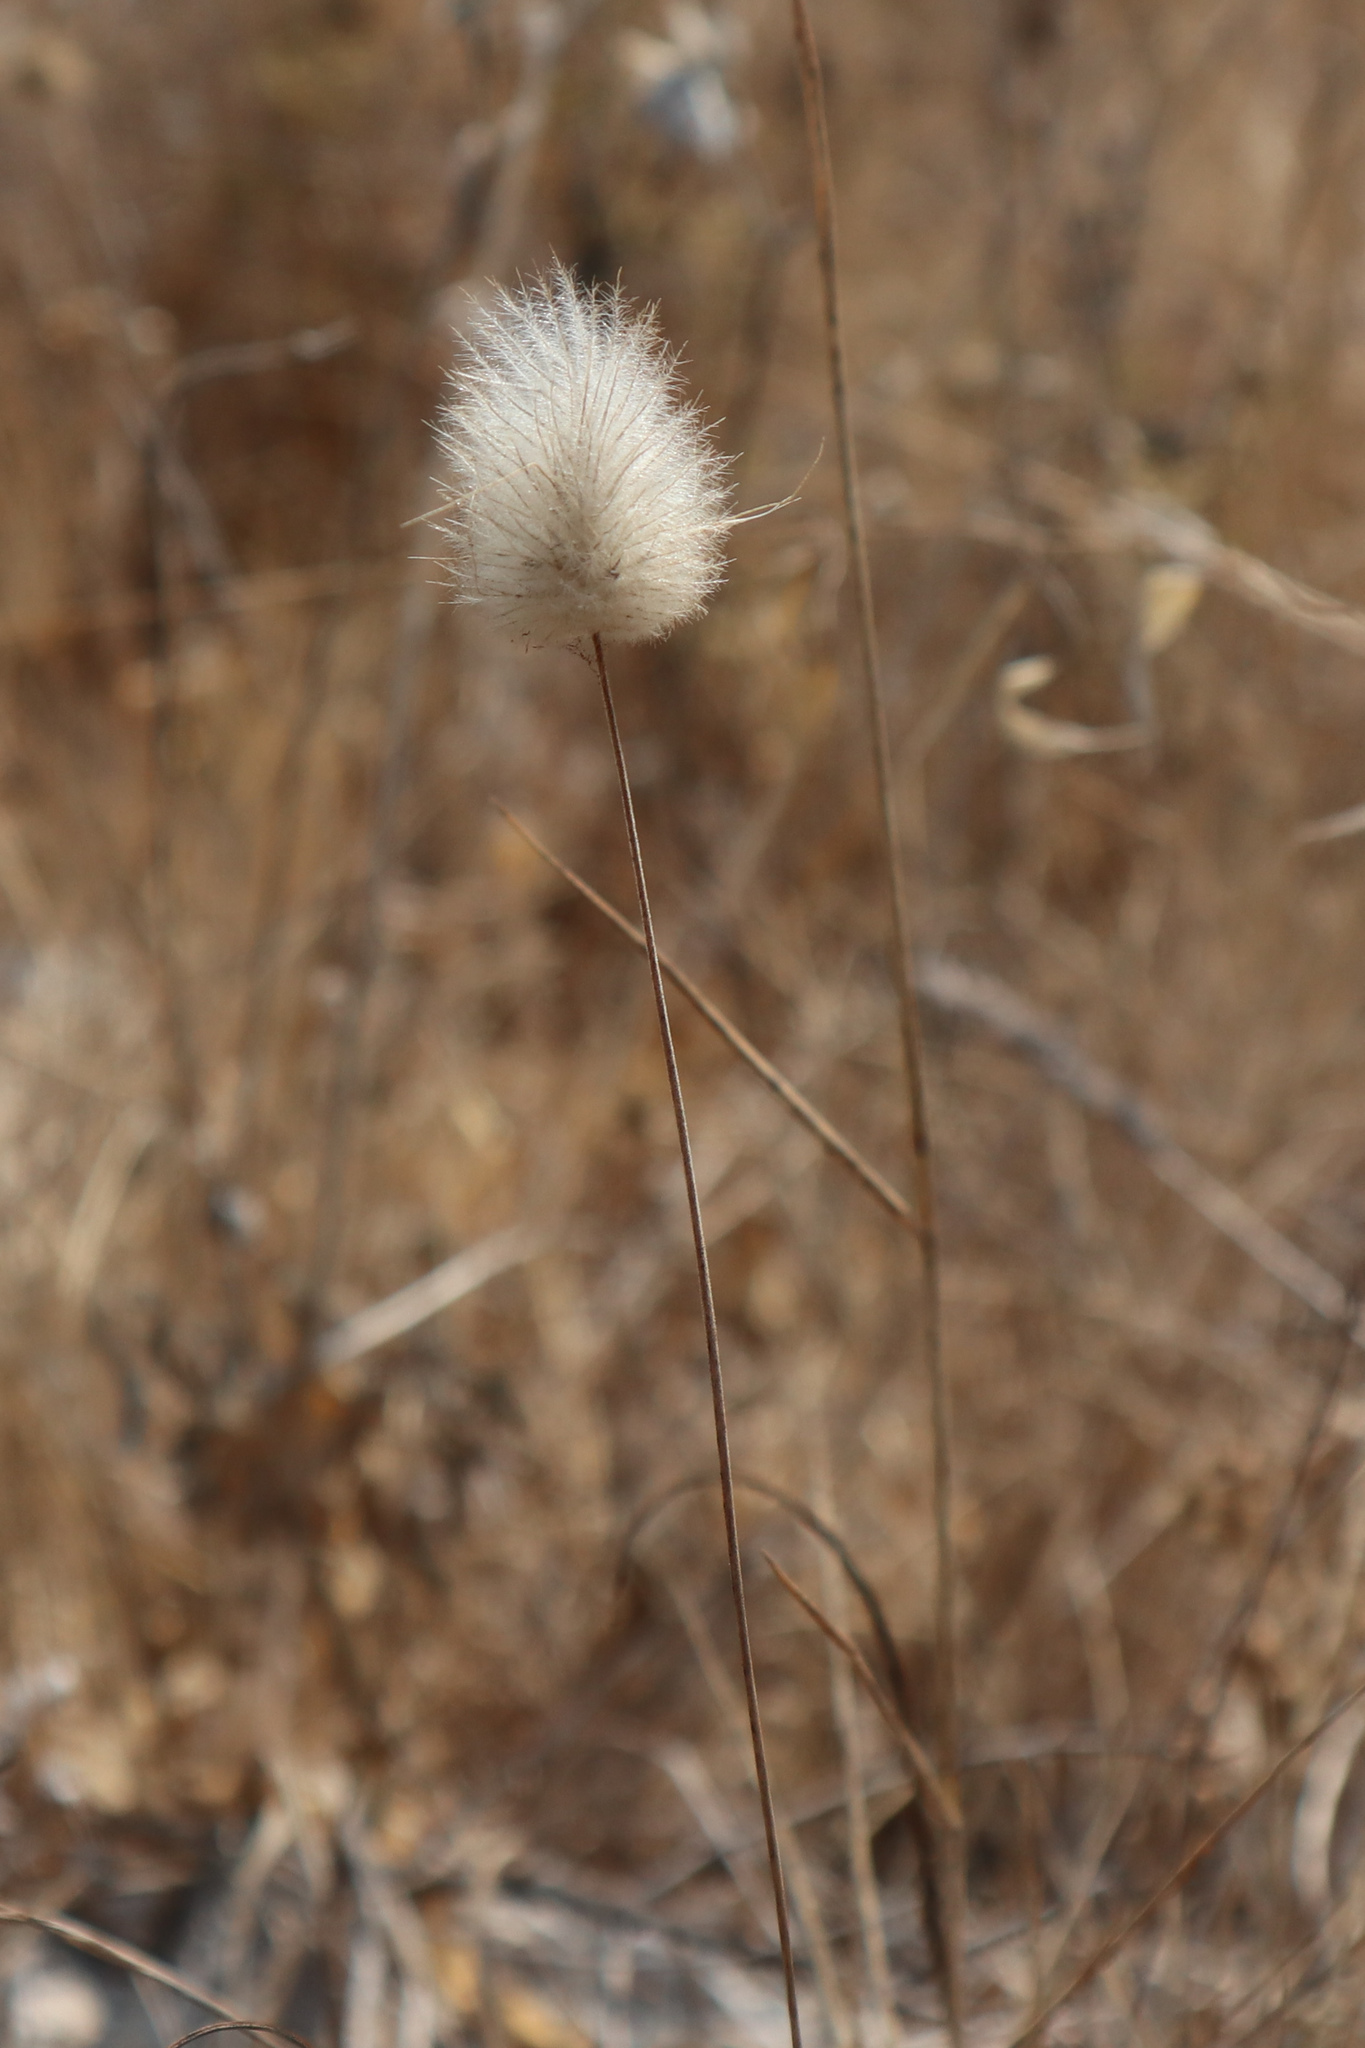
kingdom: Plantae
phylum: Tracheophyta
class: Liliopsida
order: Poales
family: Poaceae
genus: Lagurus
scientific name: Lagurus ovatus
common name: Hare's-tail
